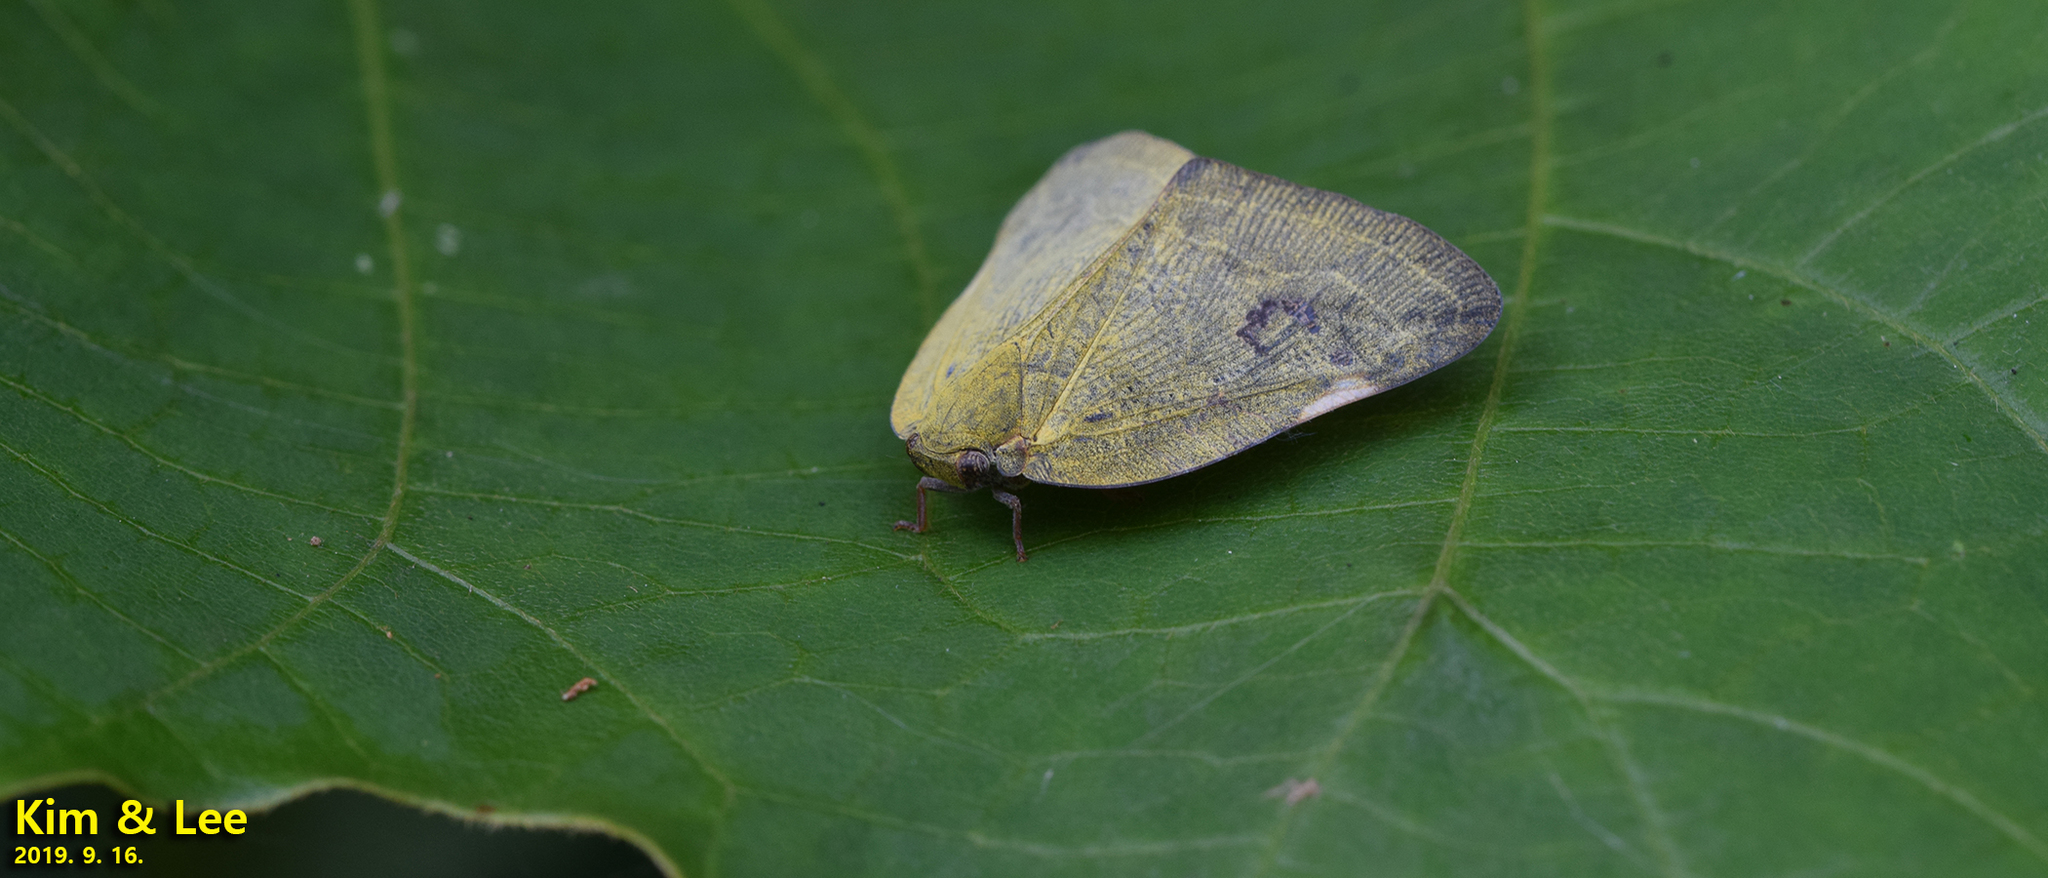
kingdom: Animalia
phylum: Arthropoda
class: Insecta
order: Hemiptera
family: Ricaniidae
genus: Ricanula
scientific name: Ricanula sublimata
